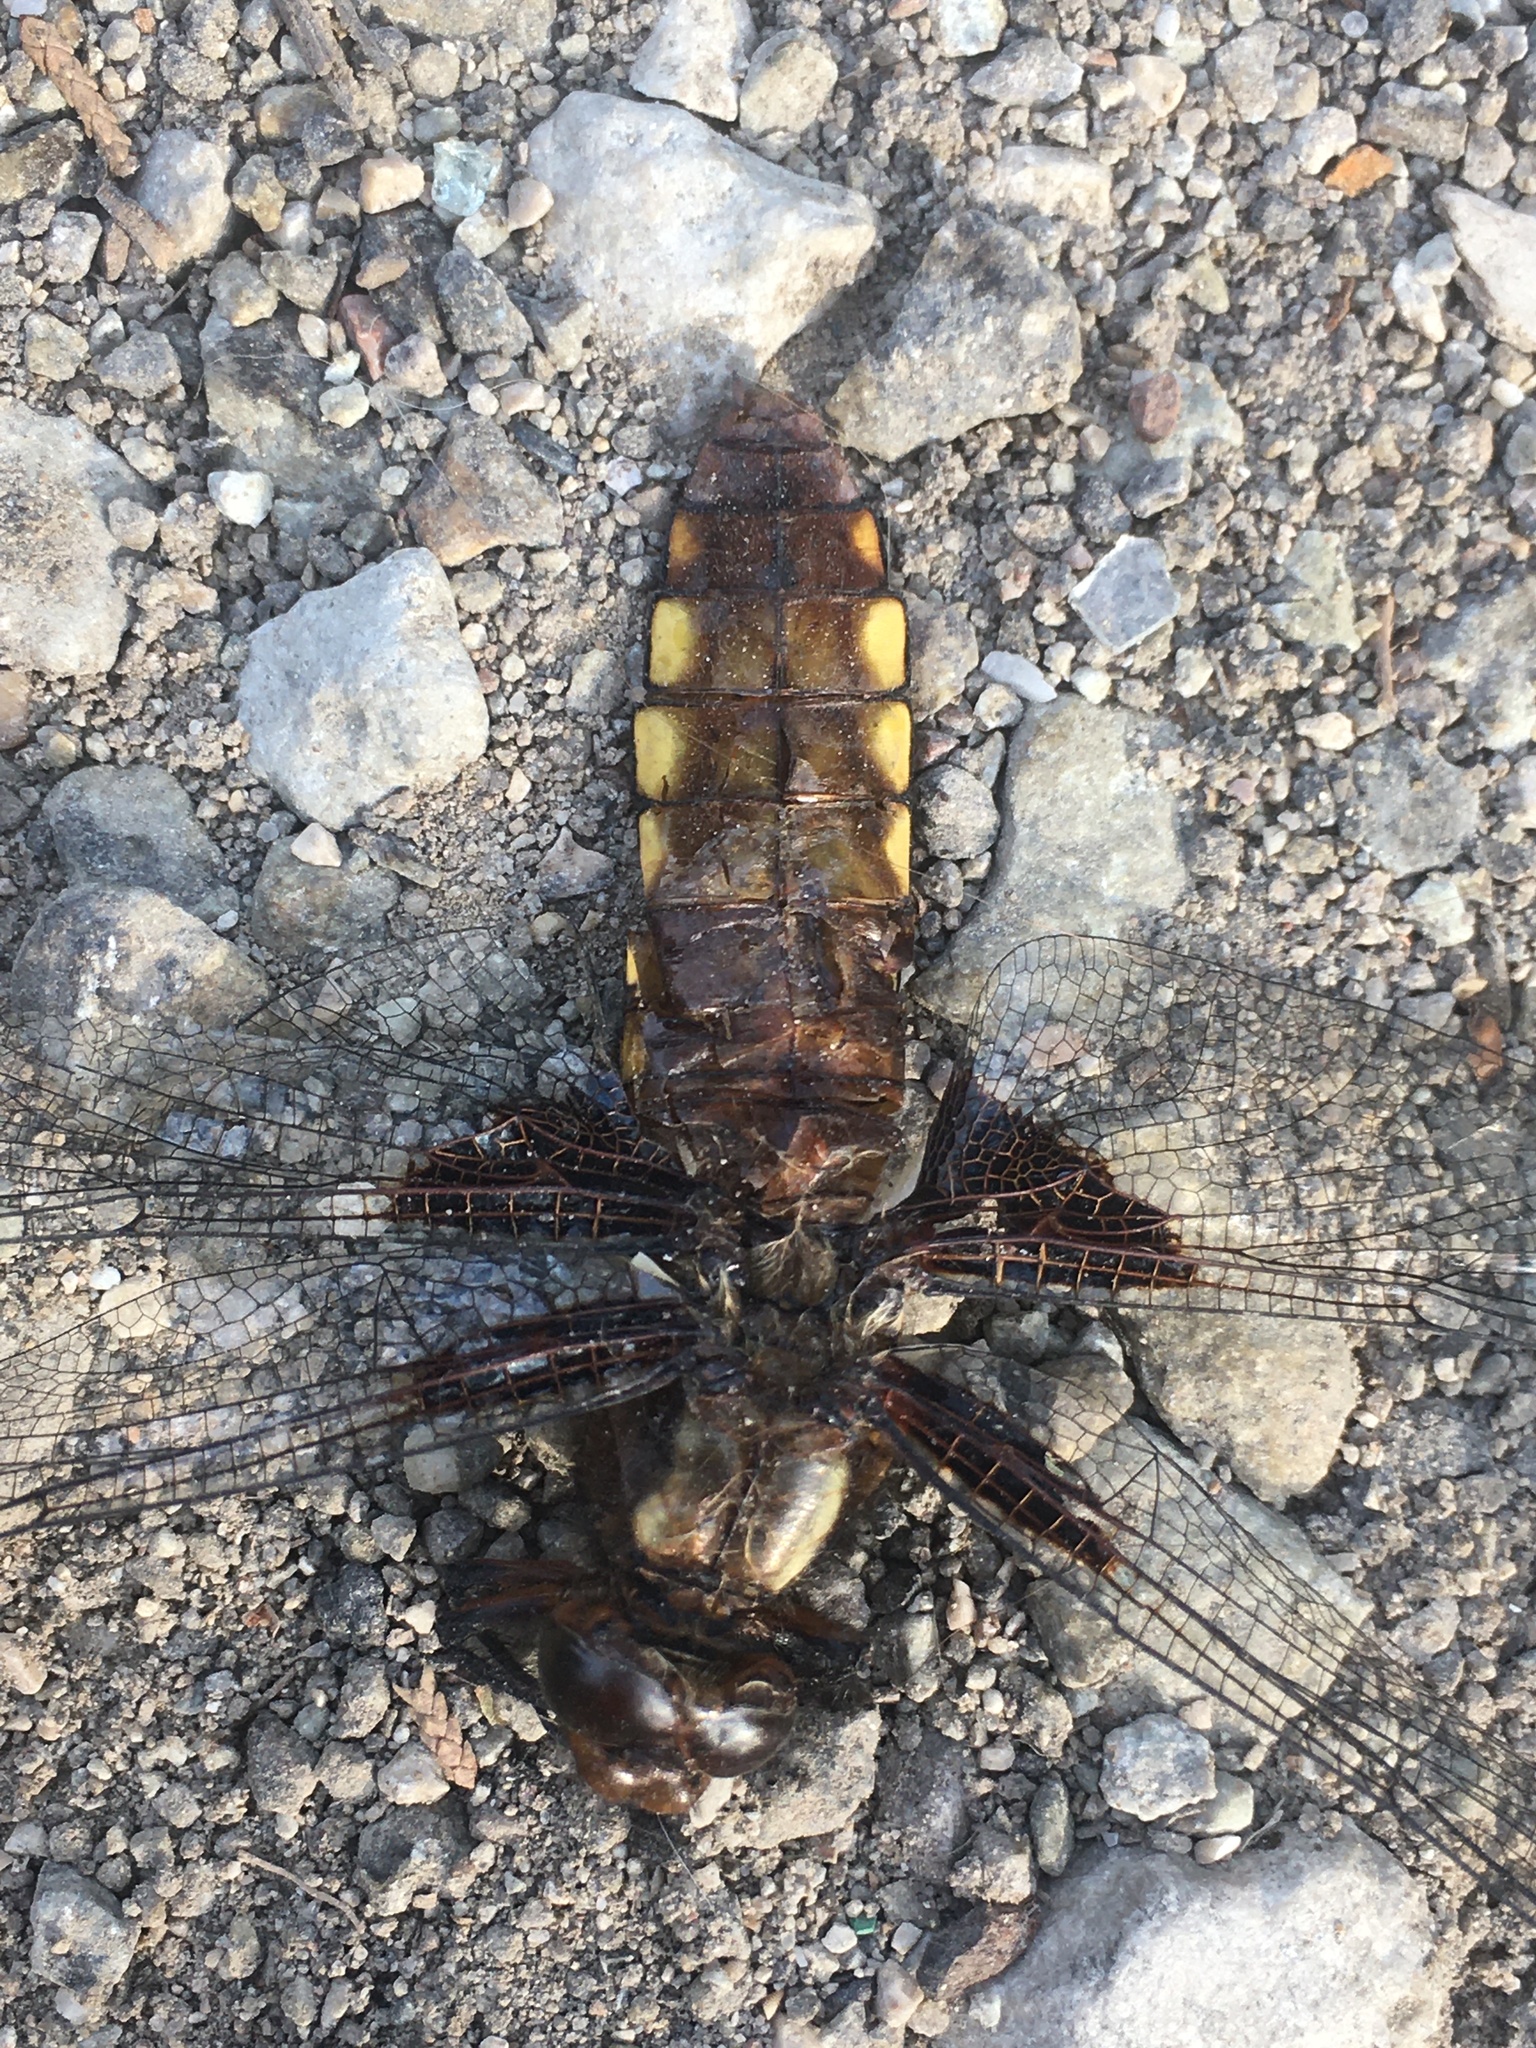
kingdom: Animalia
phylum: Arthropoda
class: Insecta
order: Odonata
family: Libellulidae
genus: Libellula
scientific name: Libellula depressa
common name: Broad-bodied chaser
